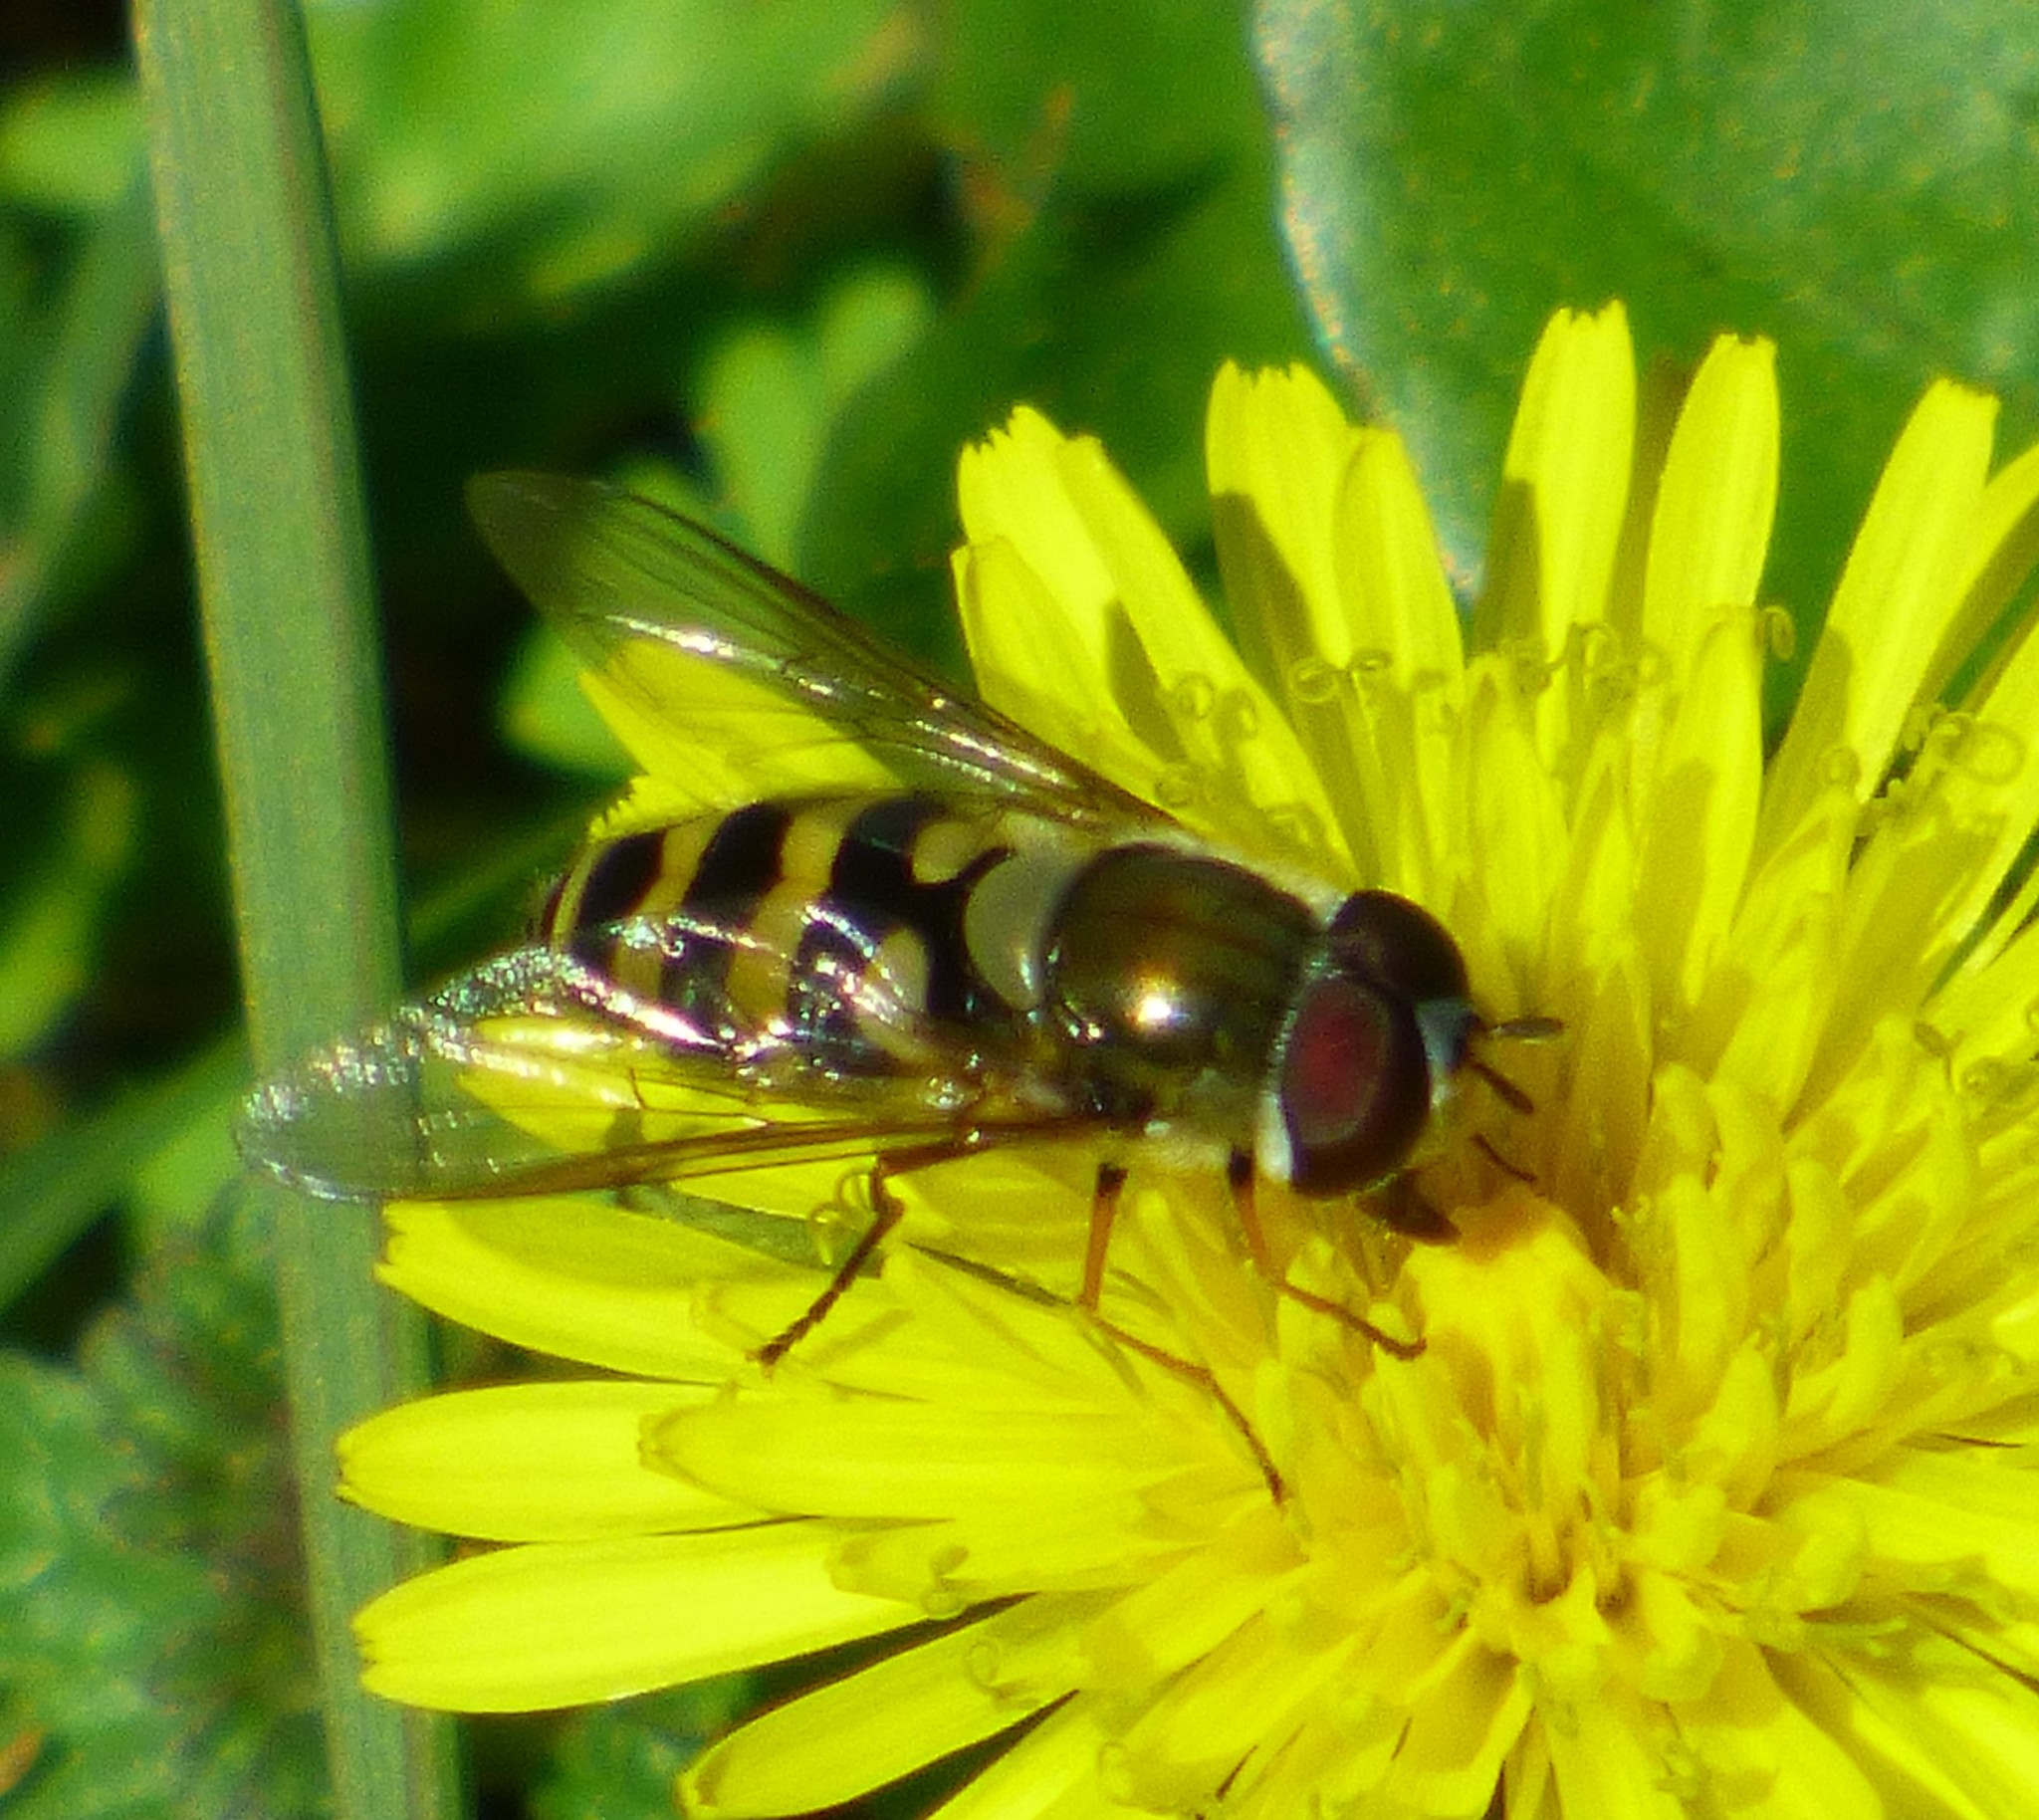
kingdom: Animalia
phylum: Arthropoda
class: Insecta
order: Diptera
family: Syrphidae
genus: Syrphus
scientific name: Syrphus
